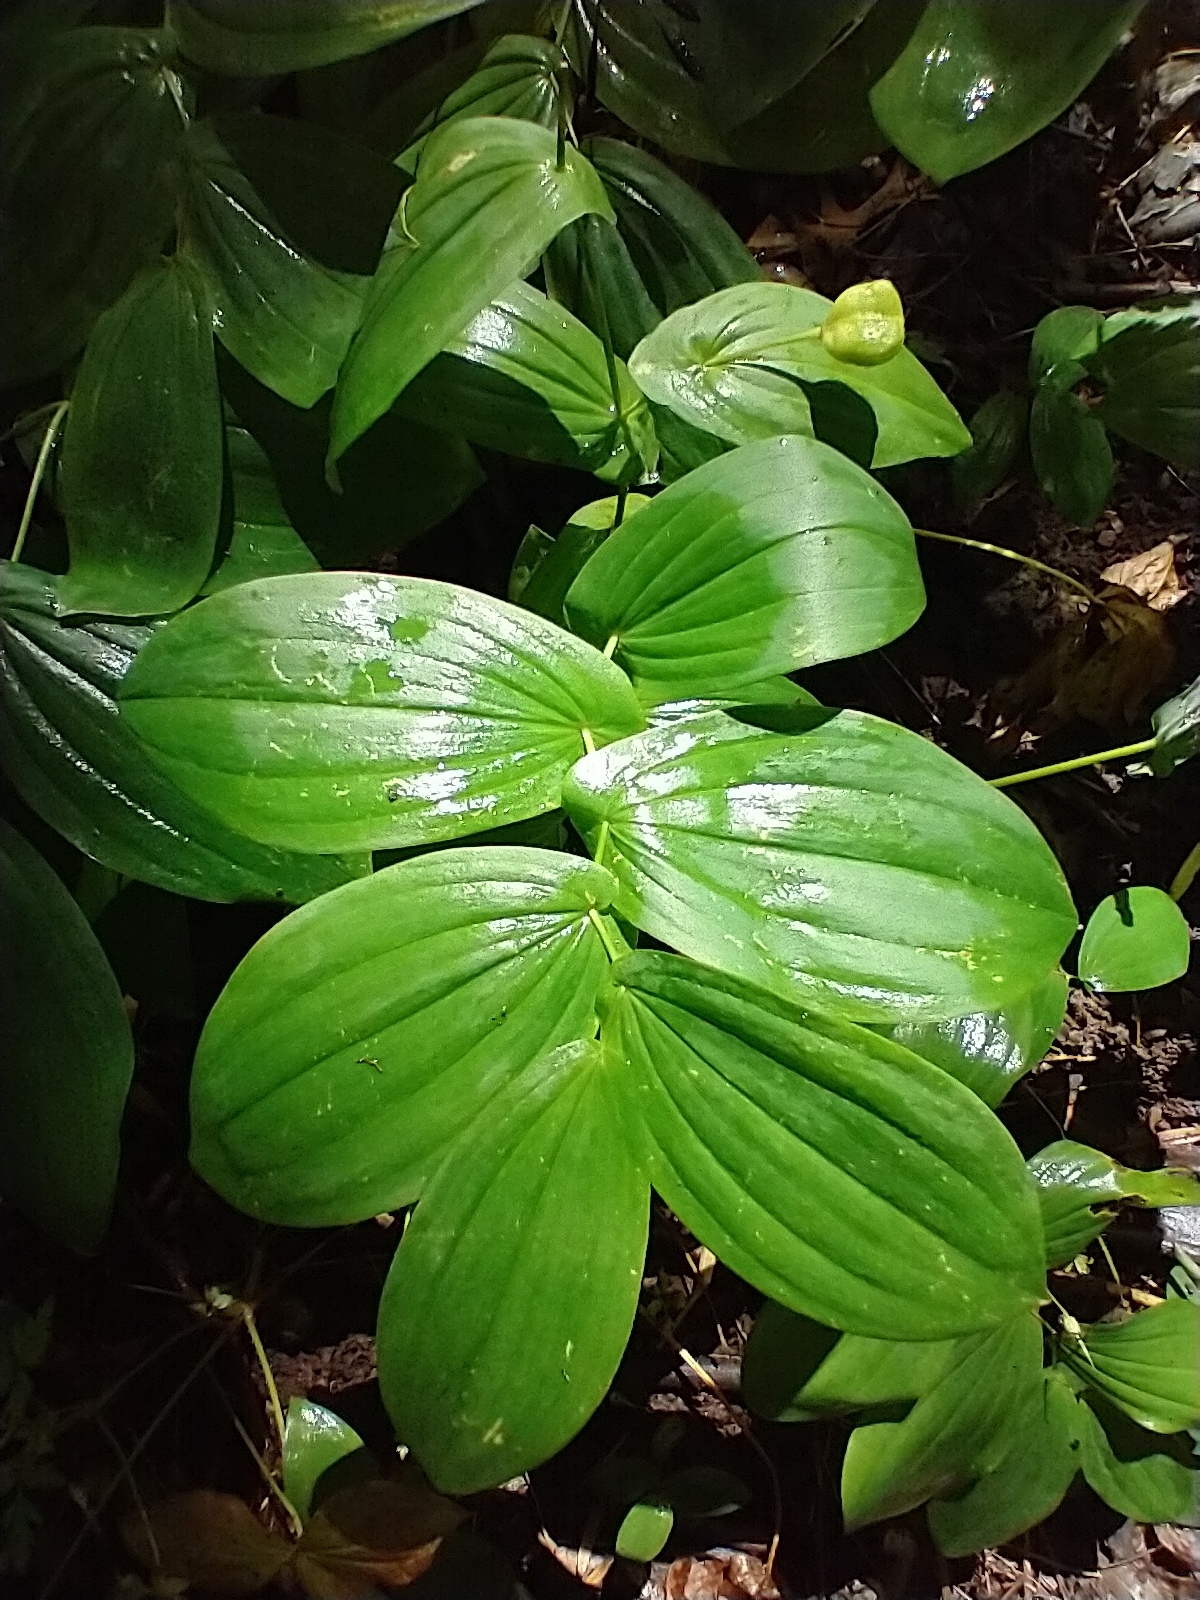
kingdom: Plantae
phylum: Tracheophyta
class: Liliopsida
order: Liliales
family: Colchicaceae
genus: Uvularia
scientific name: Uvularia grandiflora
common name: Bellwort
